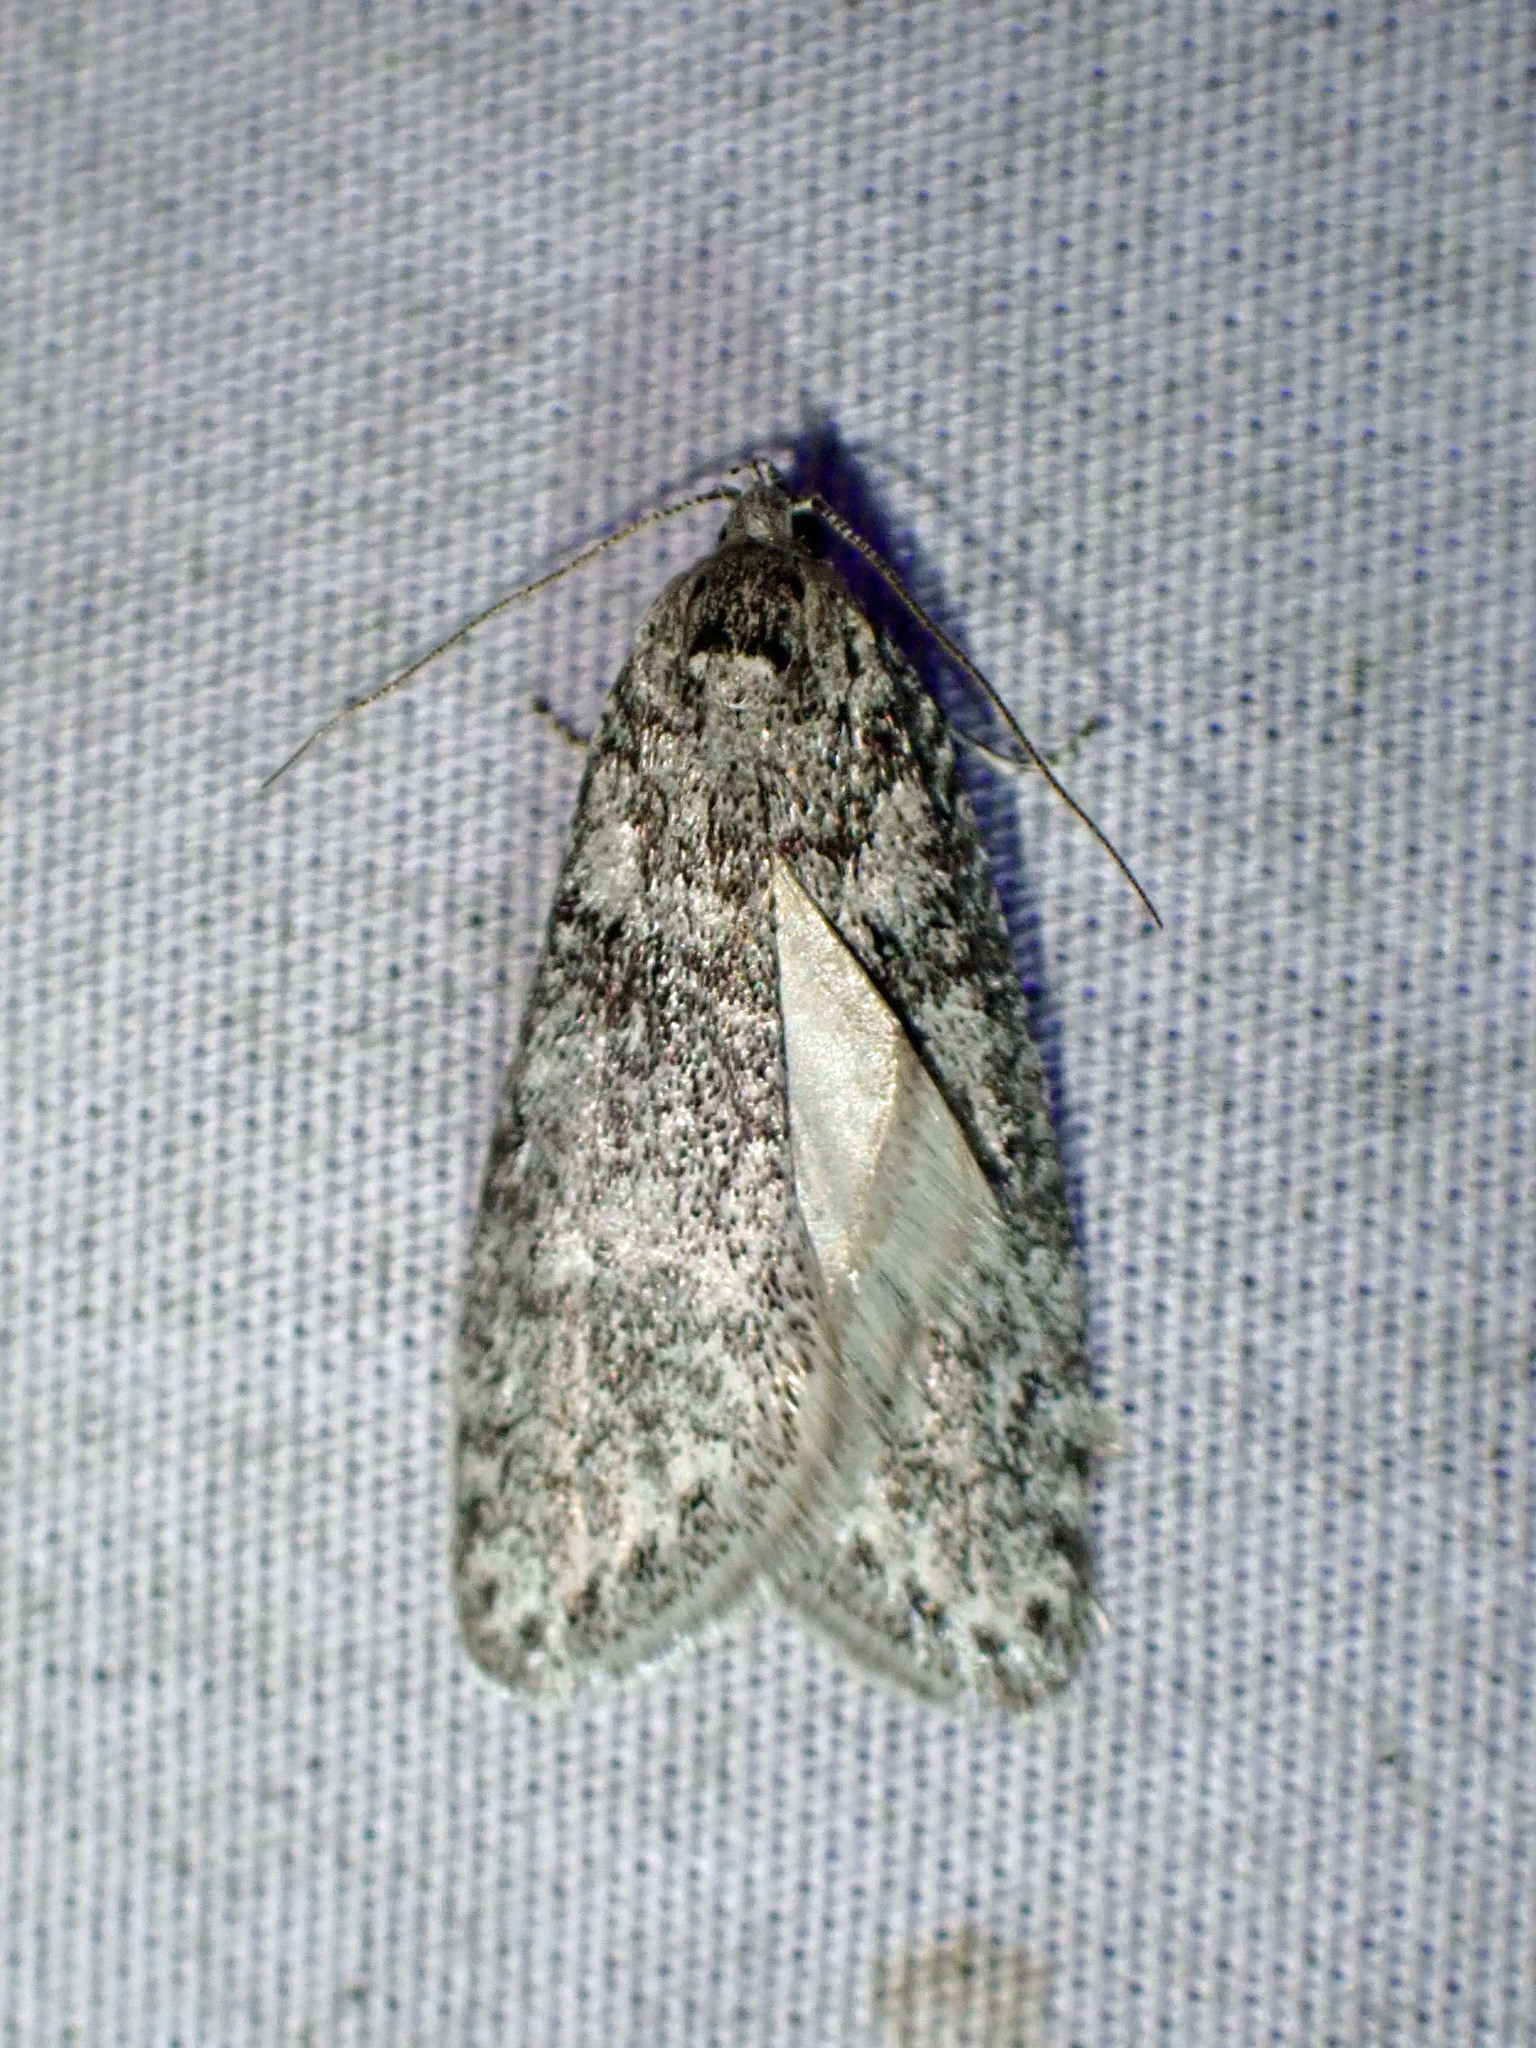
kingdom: Animalia
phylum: Arthropoda
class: Insecta
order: Lepidoptera
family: Depressariidae
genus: Semioscopis
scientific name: Semioscopis inornata
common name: Poplar micromoth
